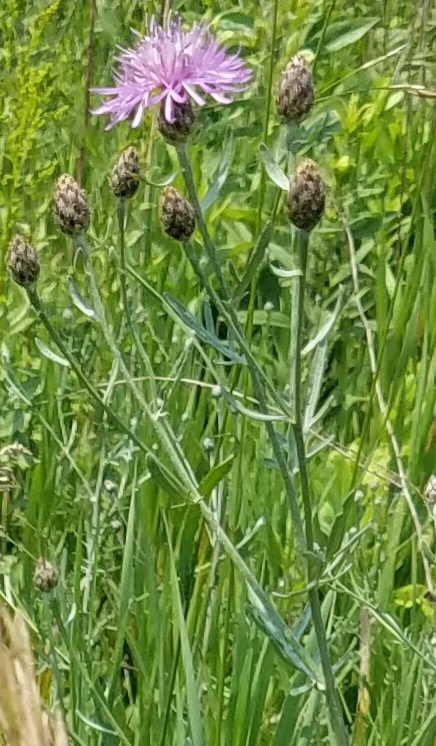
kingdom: Plantae
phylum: Tracheophyta
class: Magnoliopsida
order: Asterales
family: Asteraceae
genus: Centaurea
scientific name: Centaurea stoebe
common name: Spotted knapweed
